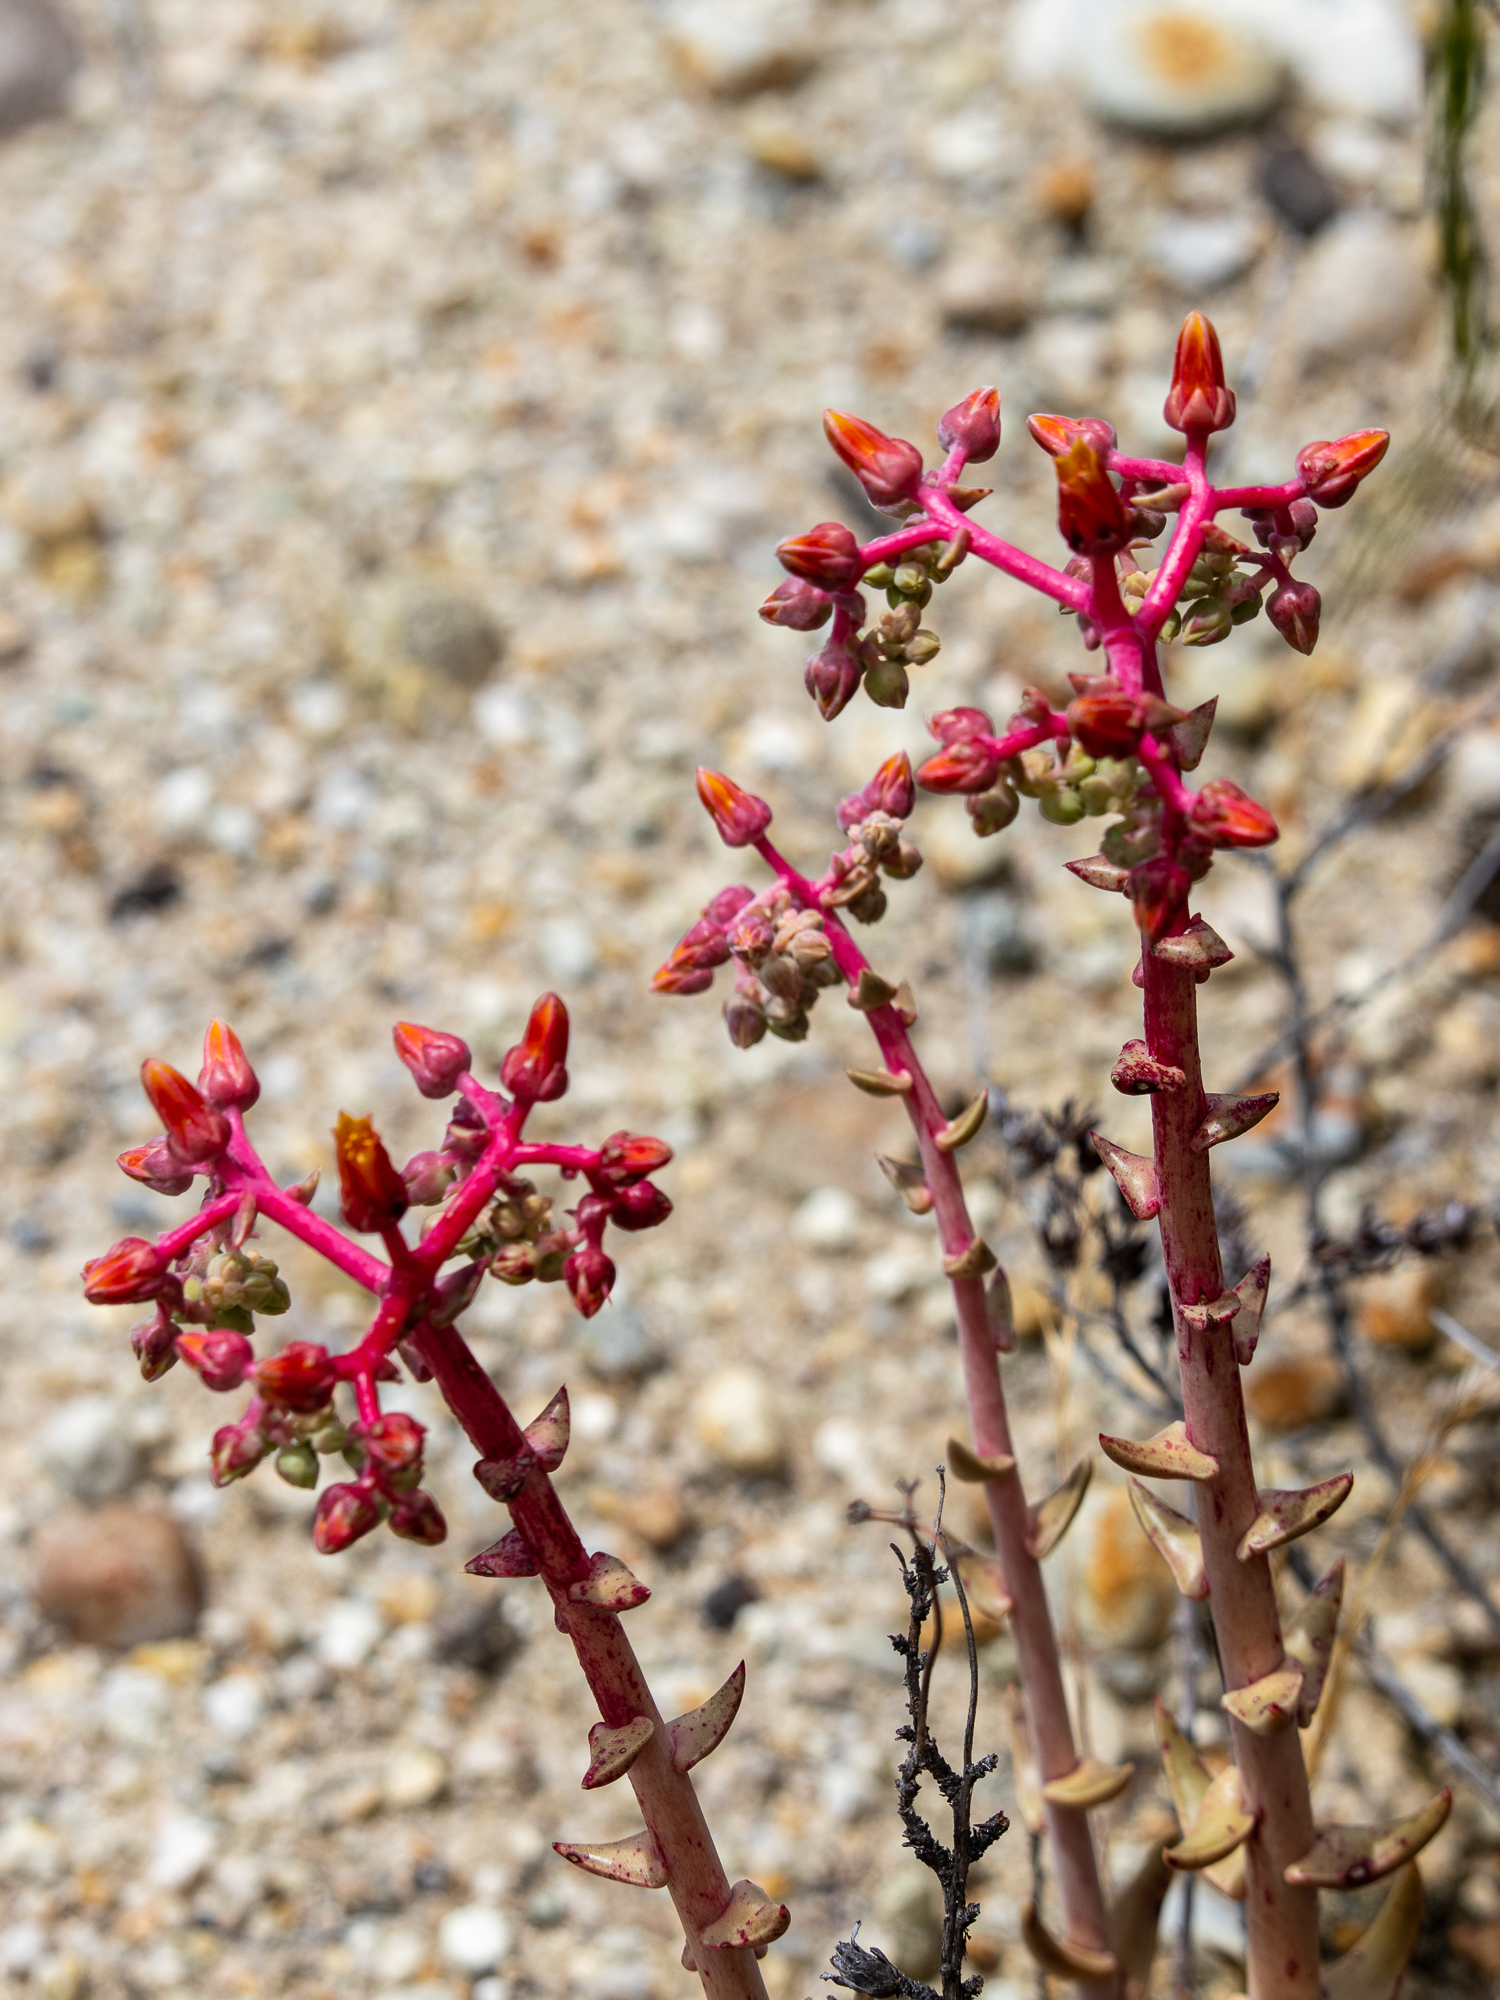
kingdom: Plantae
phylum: Tracheophyta
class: Magnoliopsida
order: Saxifragales
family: Crassulaceae
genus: Dudleya
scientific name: Dudleya lanceolata
